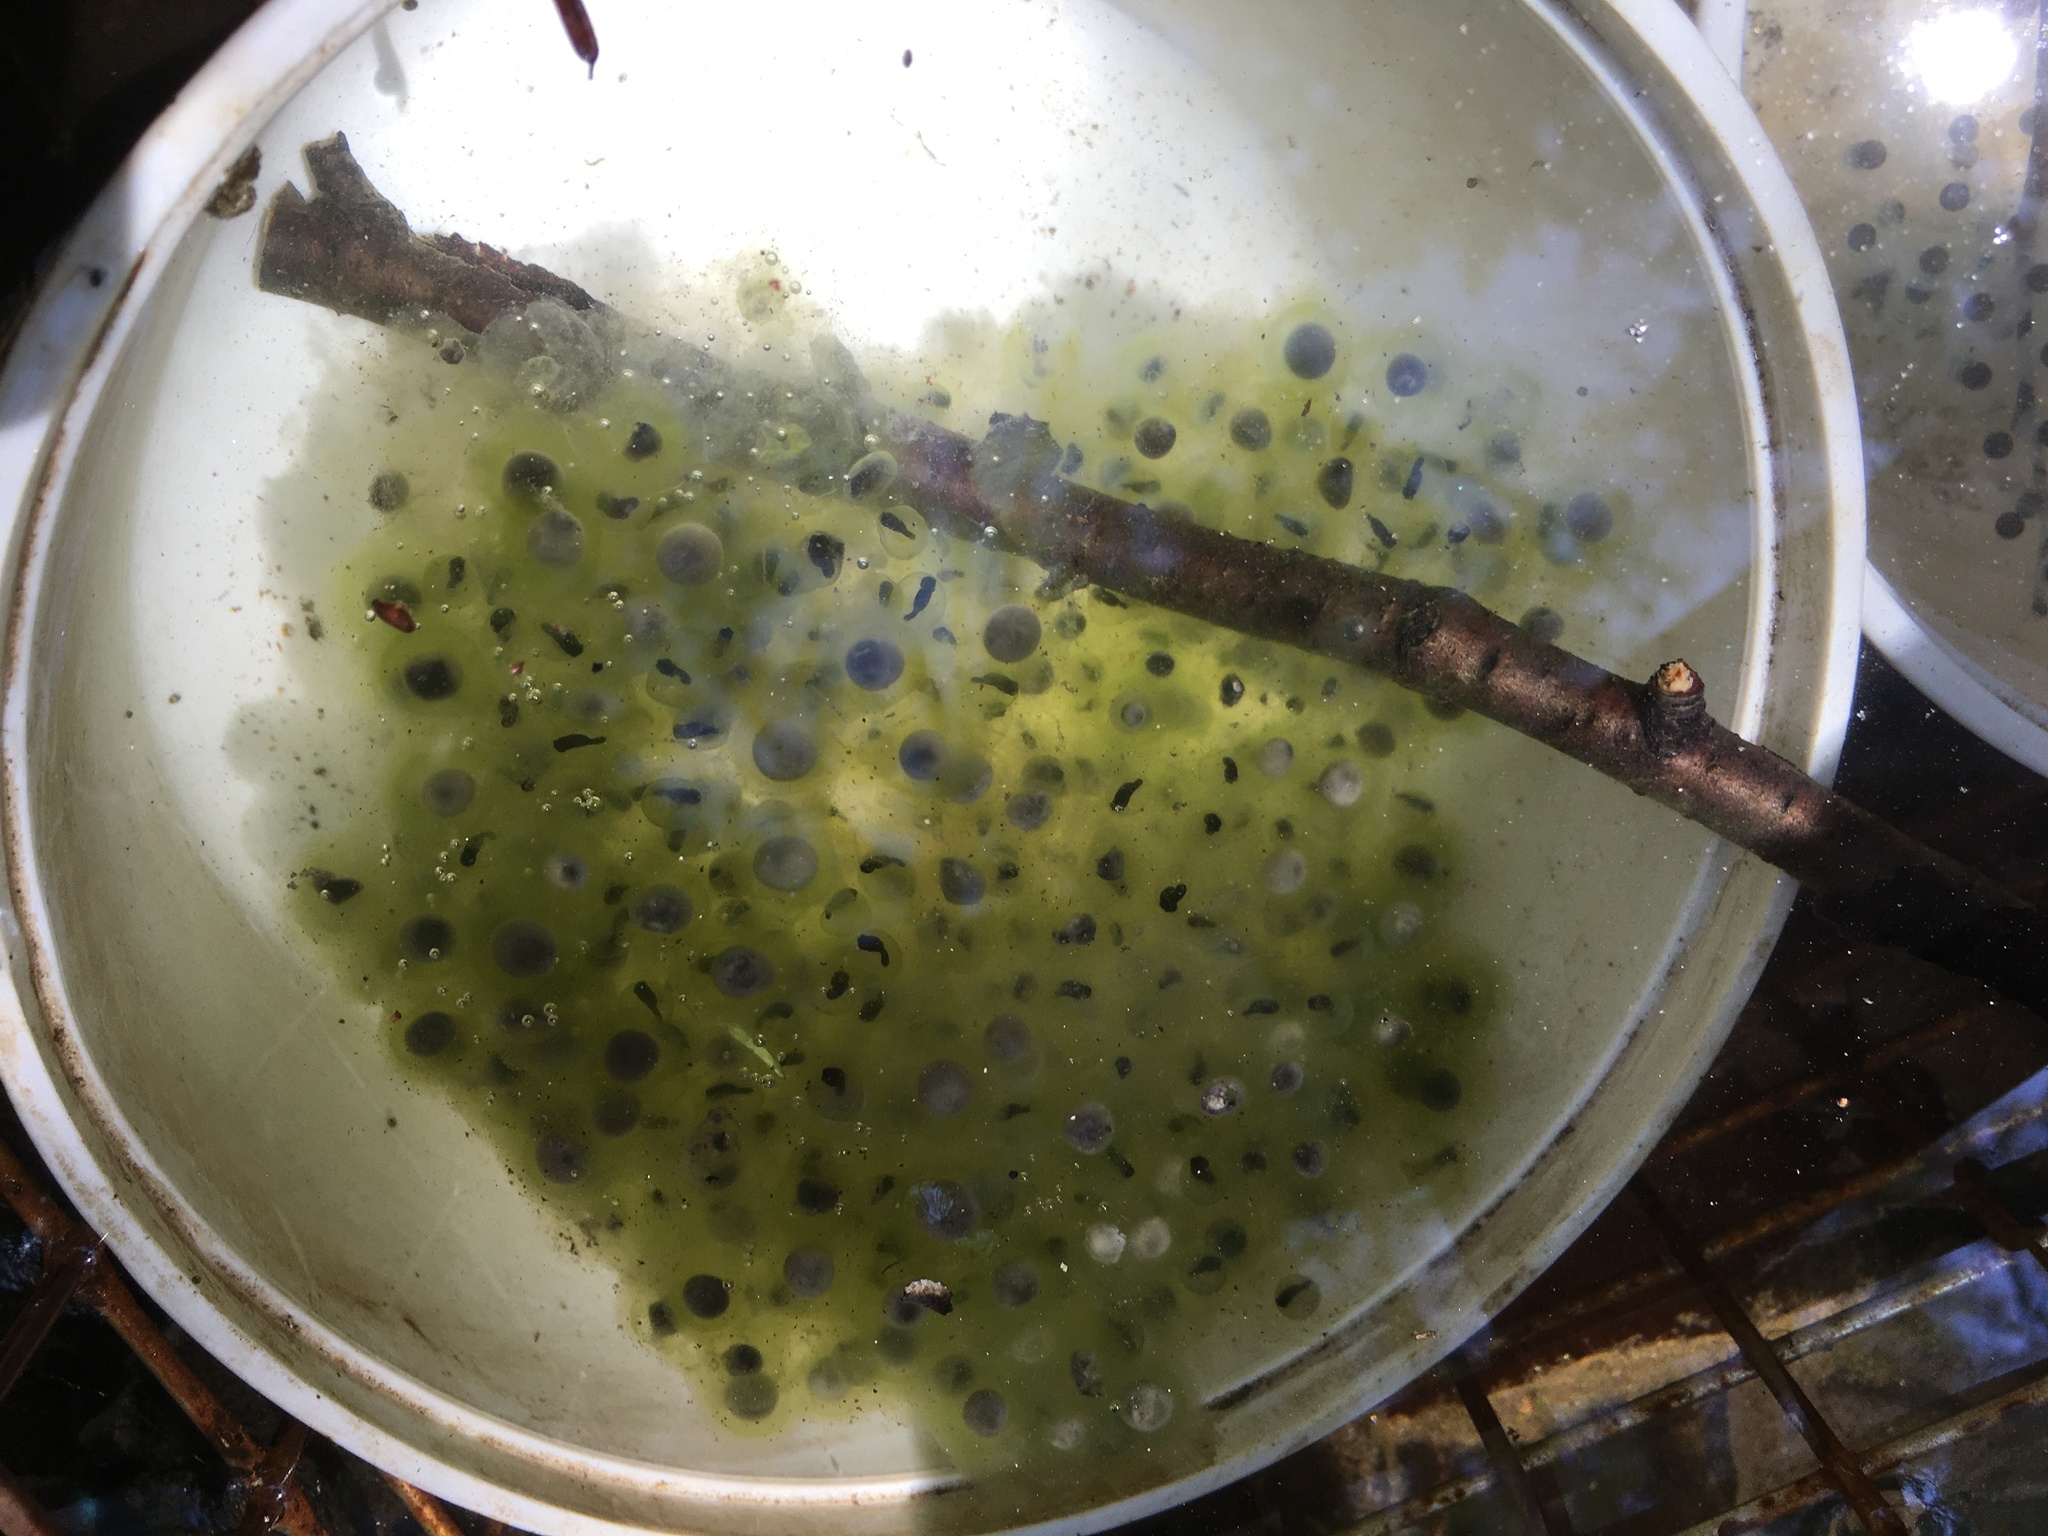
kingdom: Animalia
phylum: Chordata
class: Amphibia
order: Anura
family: Ranidae
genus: Lithobates
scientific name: Lithobates sylvaticus
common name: Wood frog
